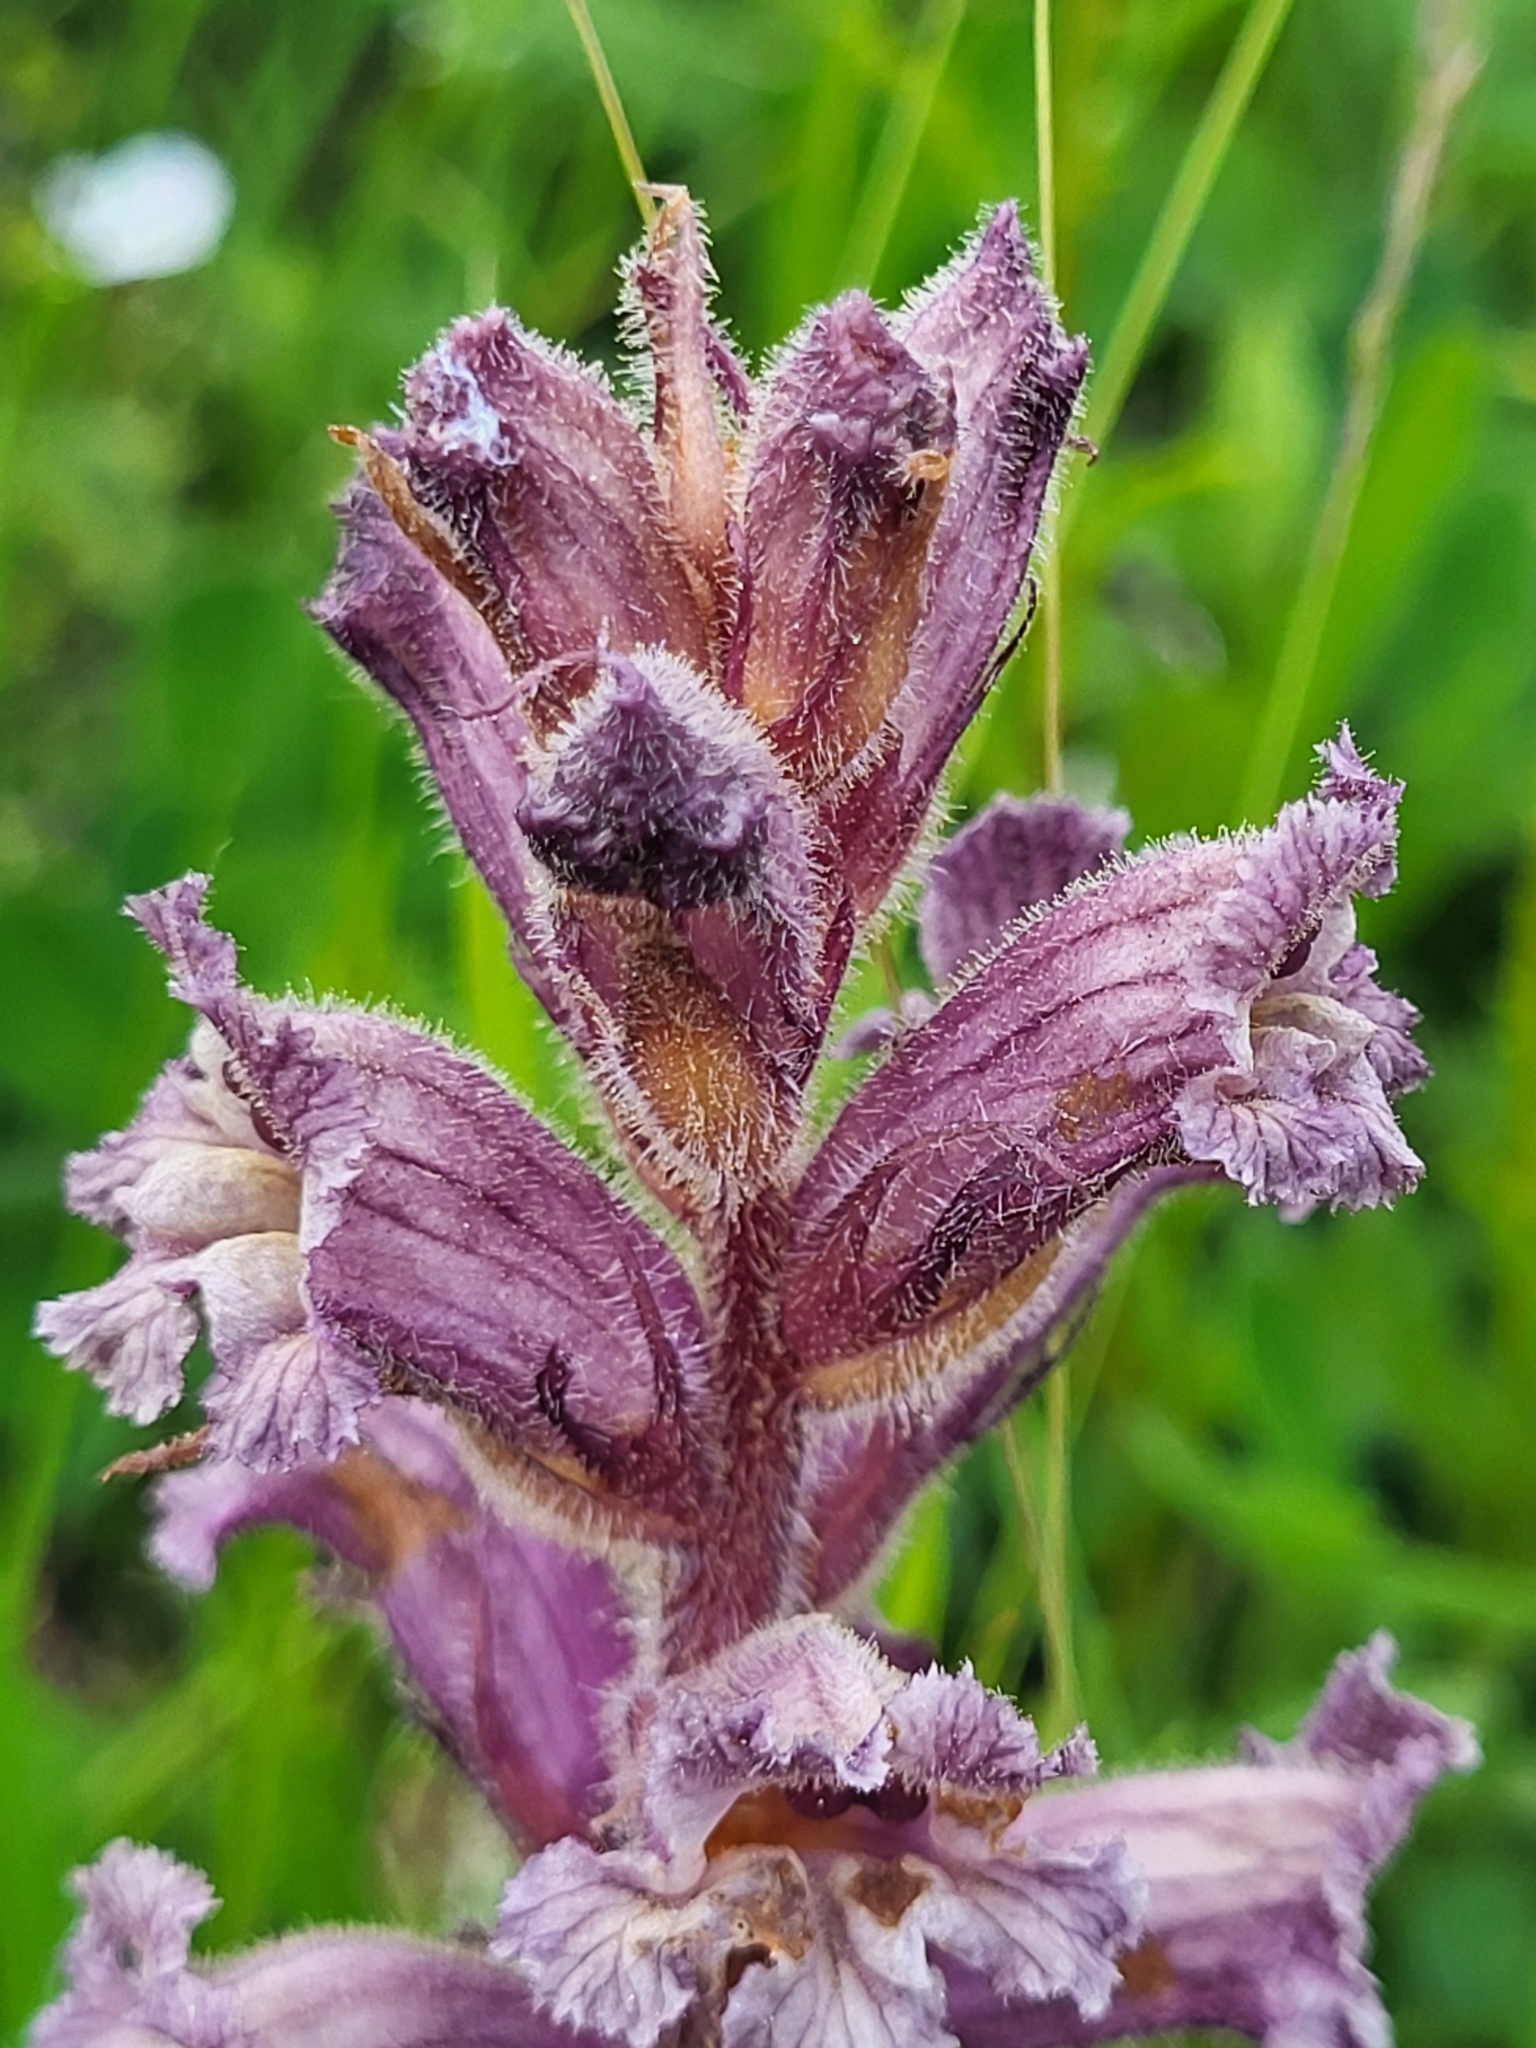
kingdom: Plantae
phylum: Tracheophyta
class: Magnoliopsida
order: Lamiales
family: Orobanchaceae
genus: Orobanche
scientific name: Orobanche owerinii
